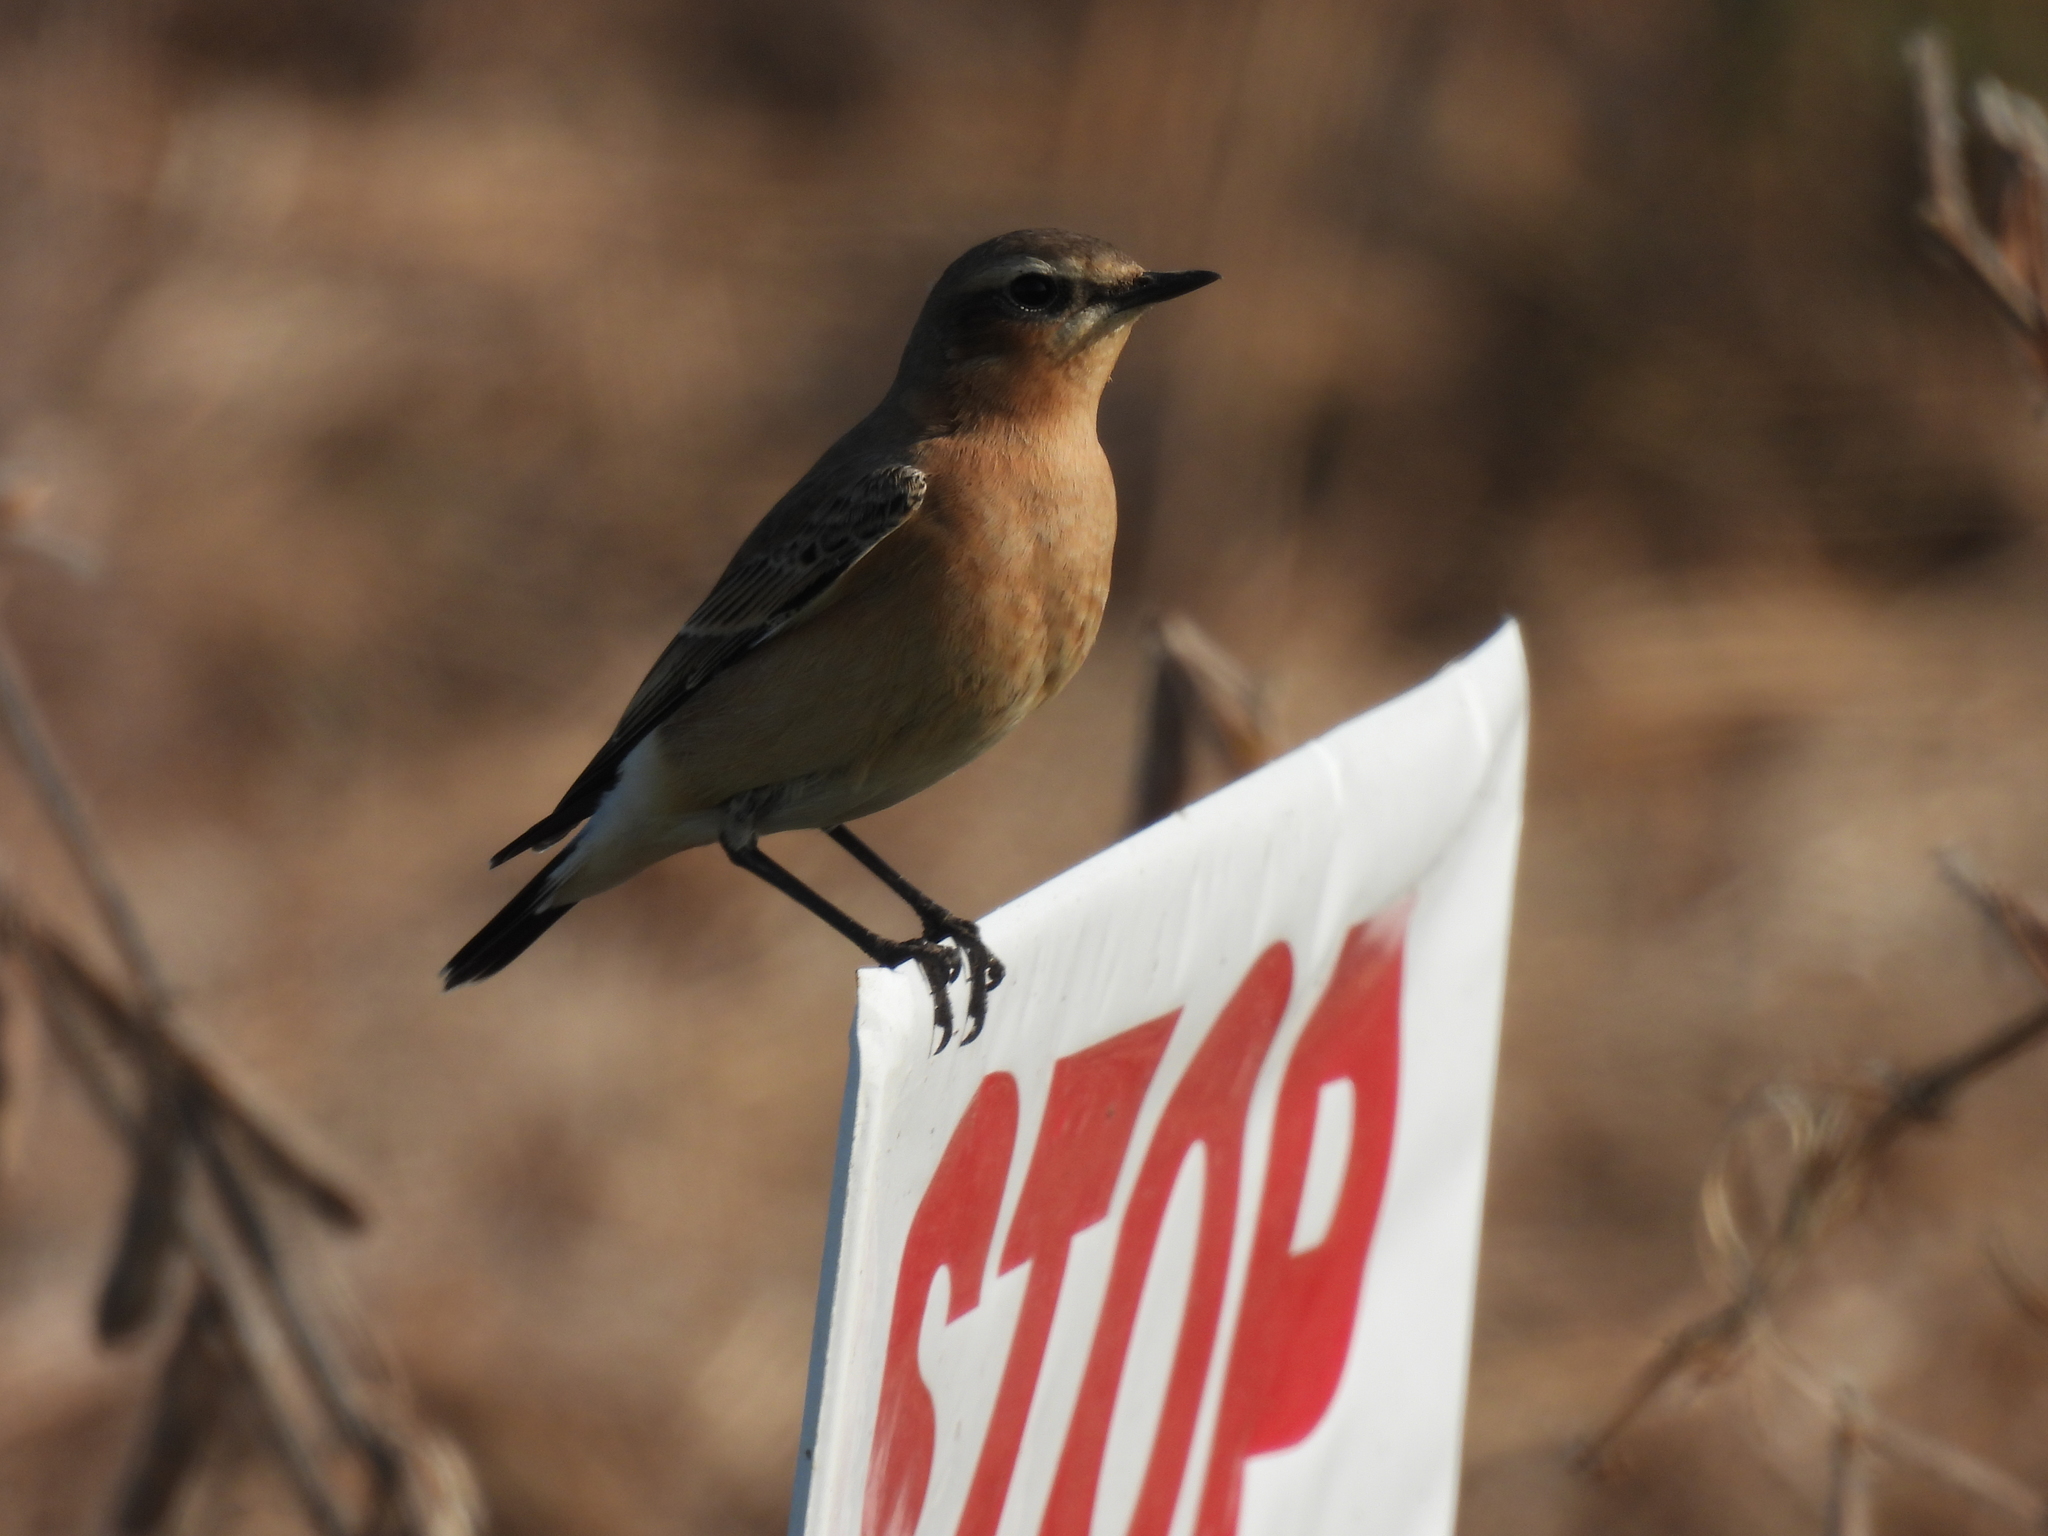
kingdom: Animalia
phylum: Chordata
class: Aves
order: Passeriformes
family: Muscicapidae
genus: Oenanthe
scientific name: Oenanthe oenanthe
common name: Northern wheatear
